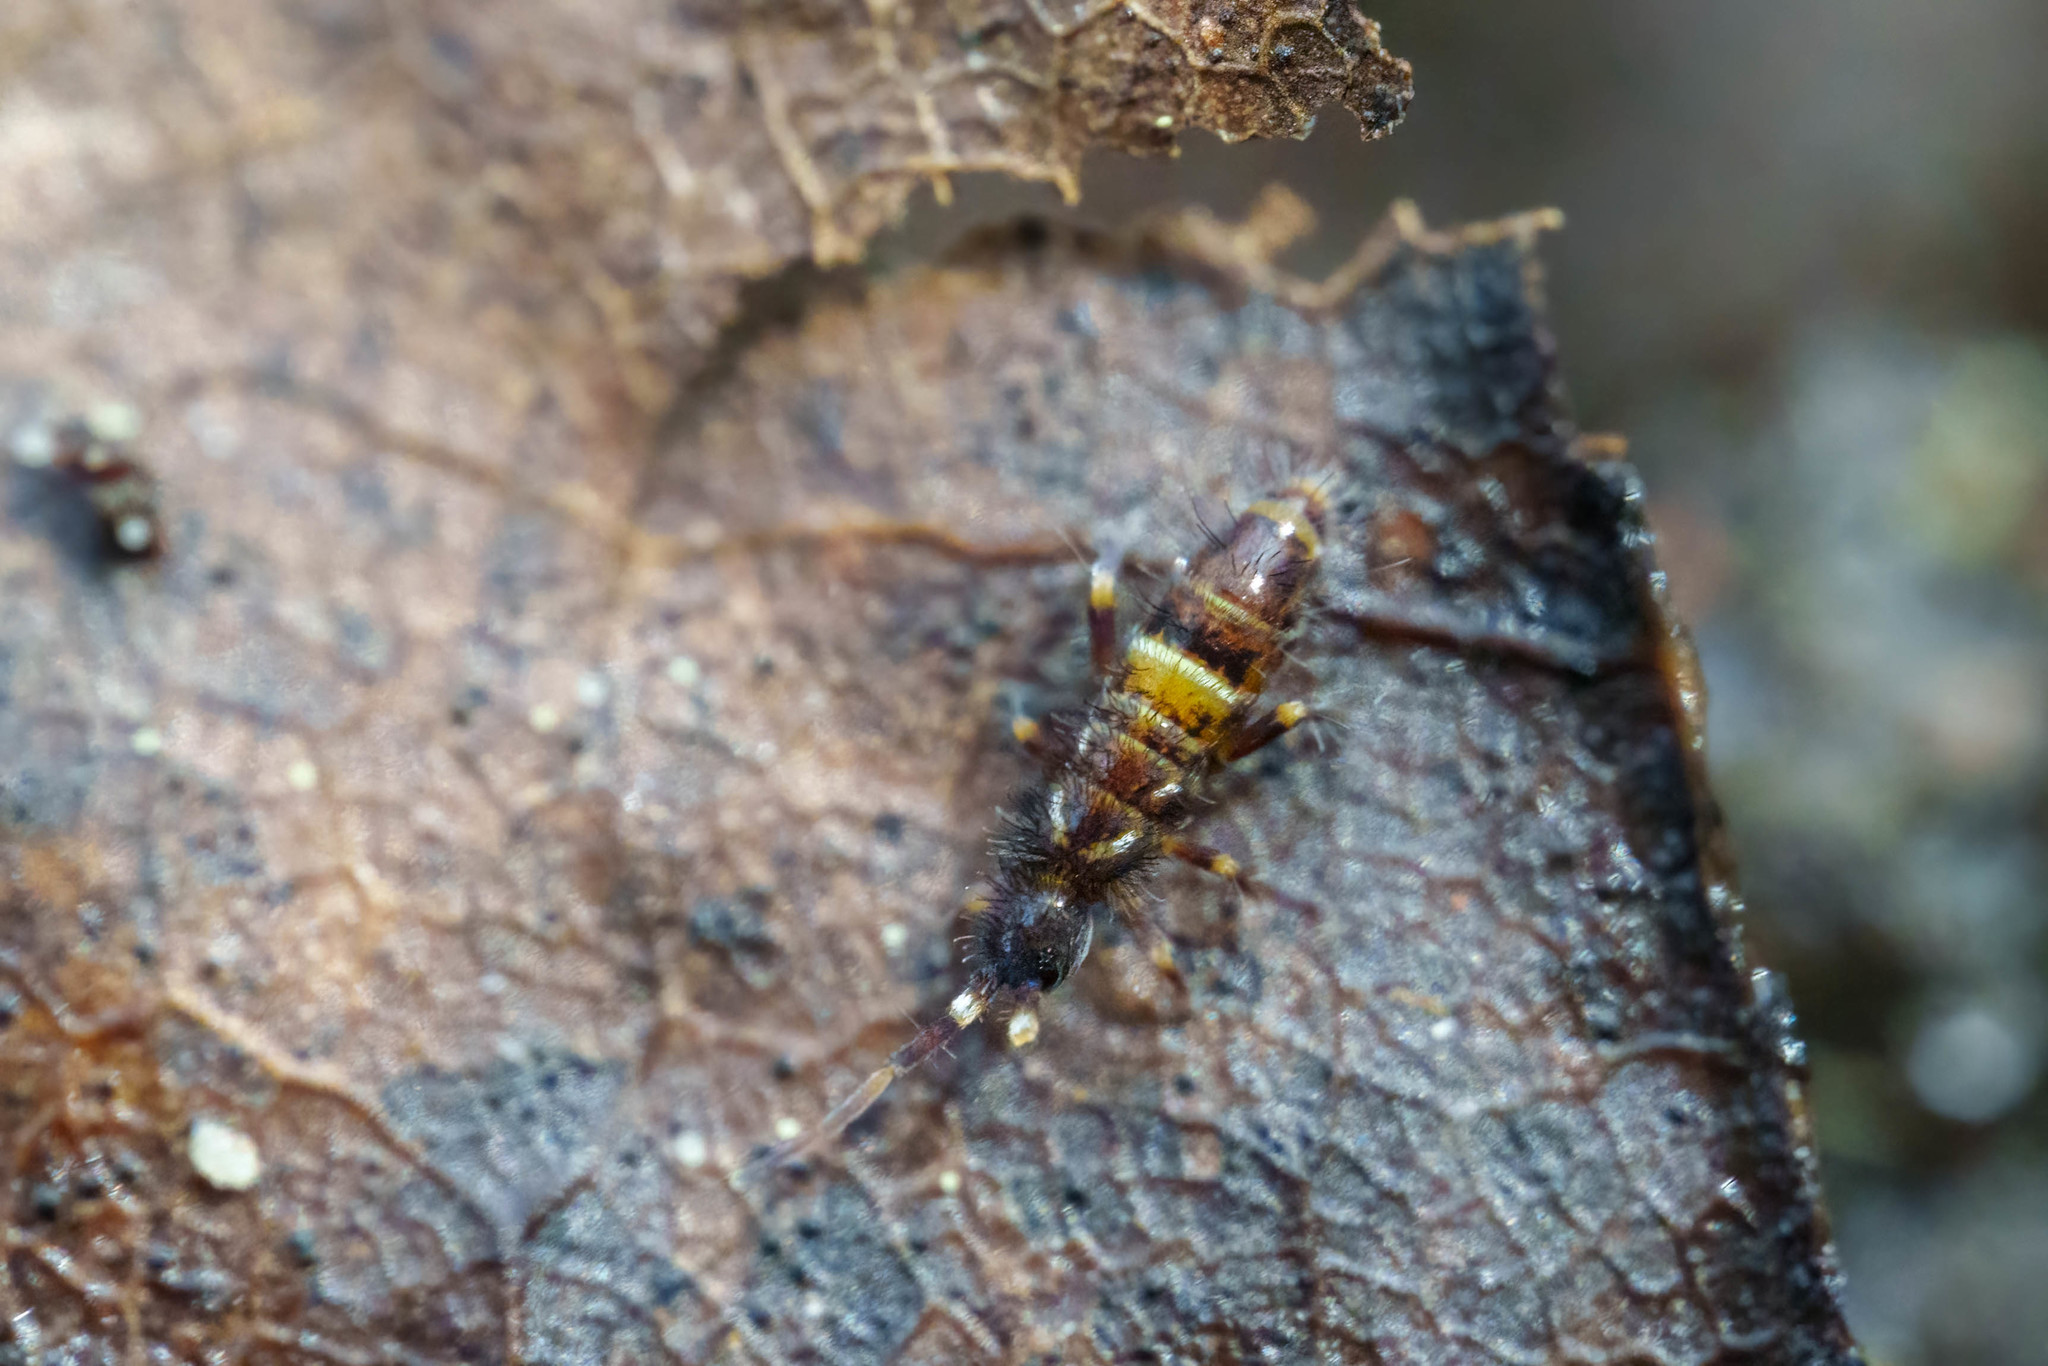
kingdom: Animalia
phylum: Arthropoda
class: Collembola
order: Entomobryomorpha
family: Orchesellidae
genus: Orchesella
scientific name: Orchesella cincta
